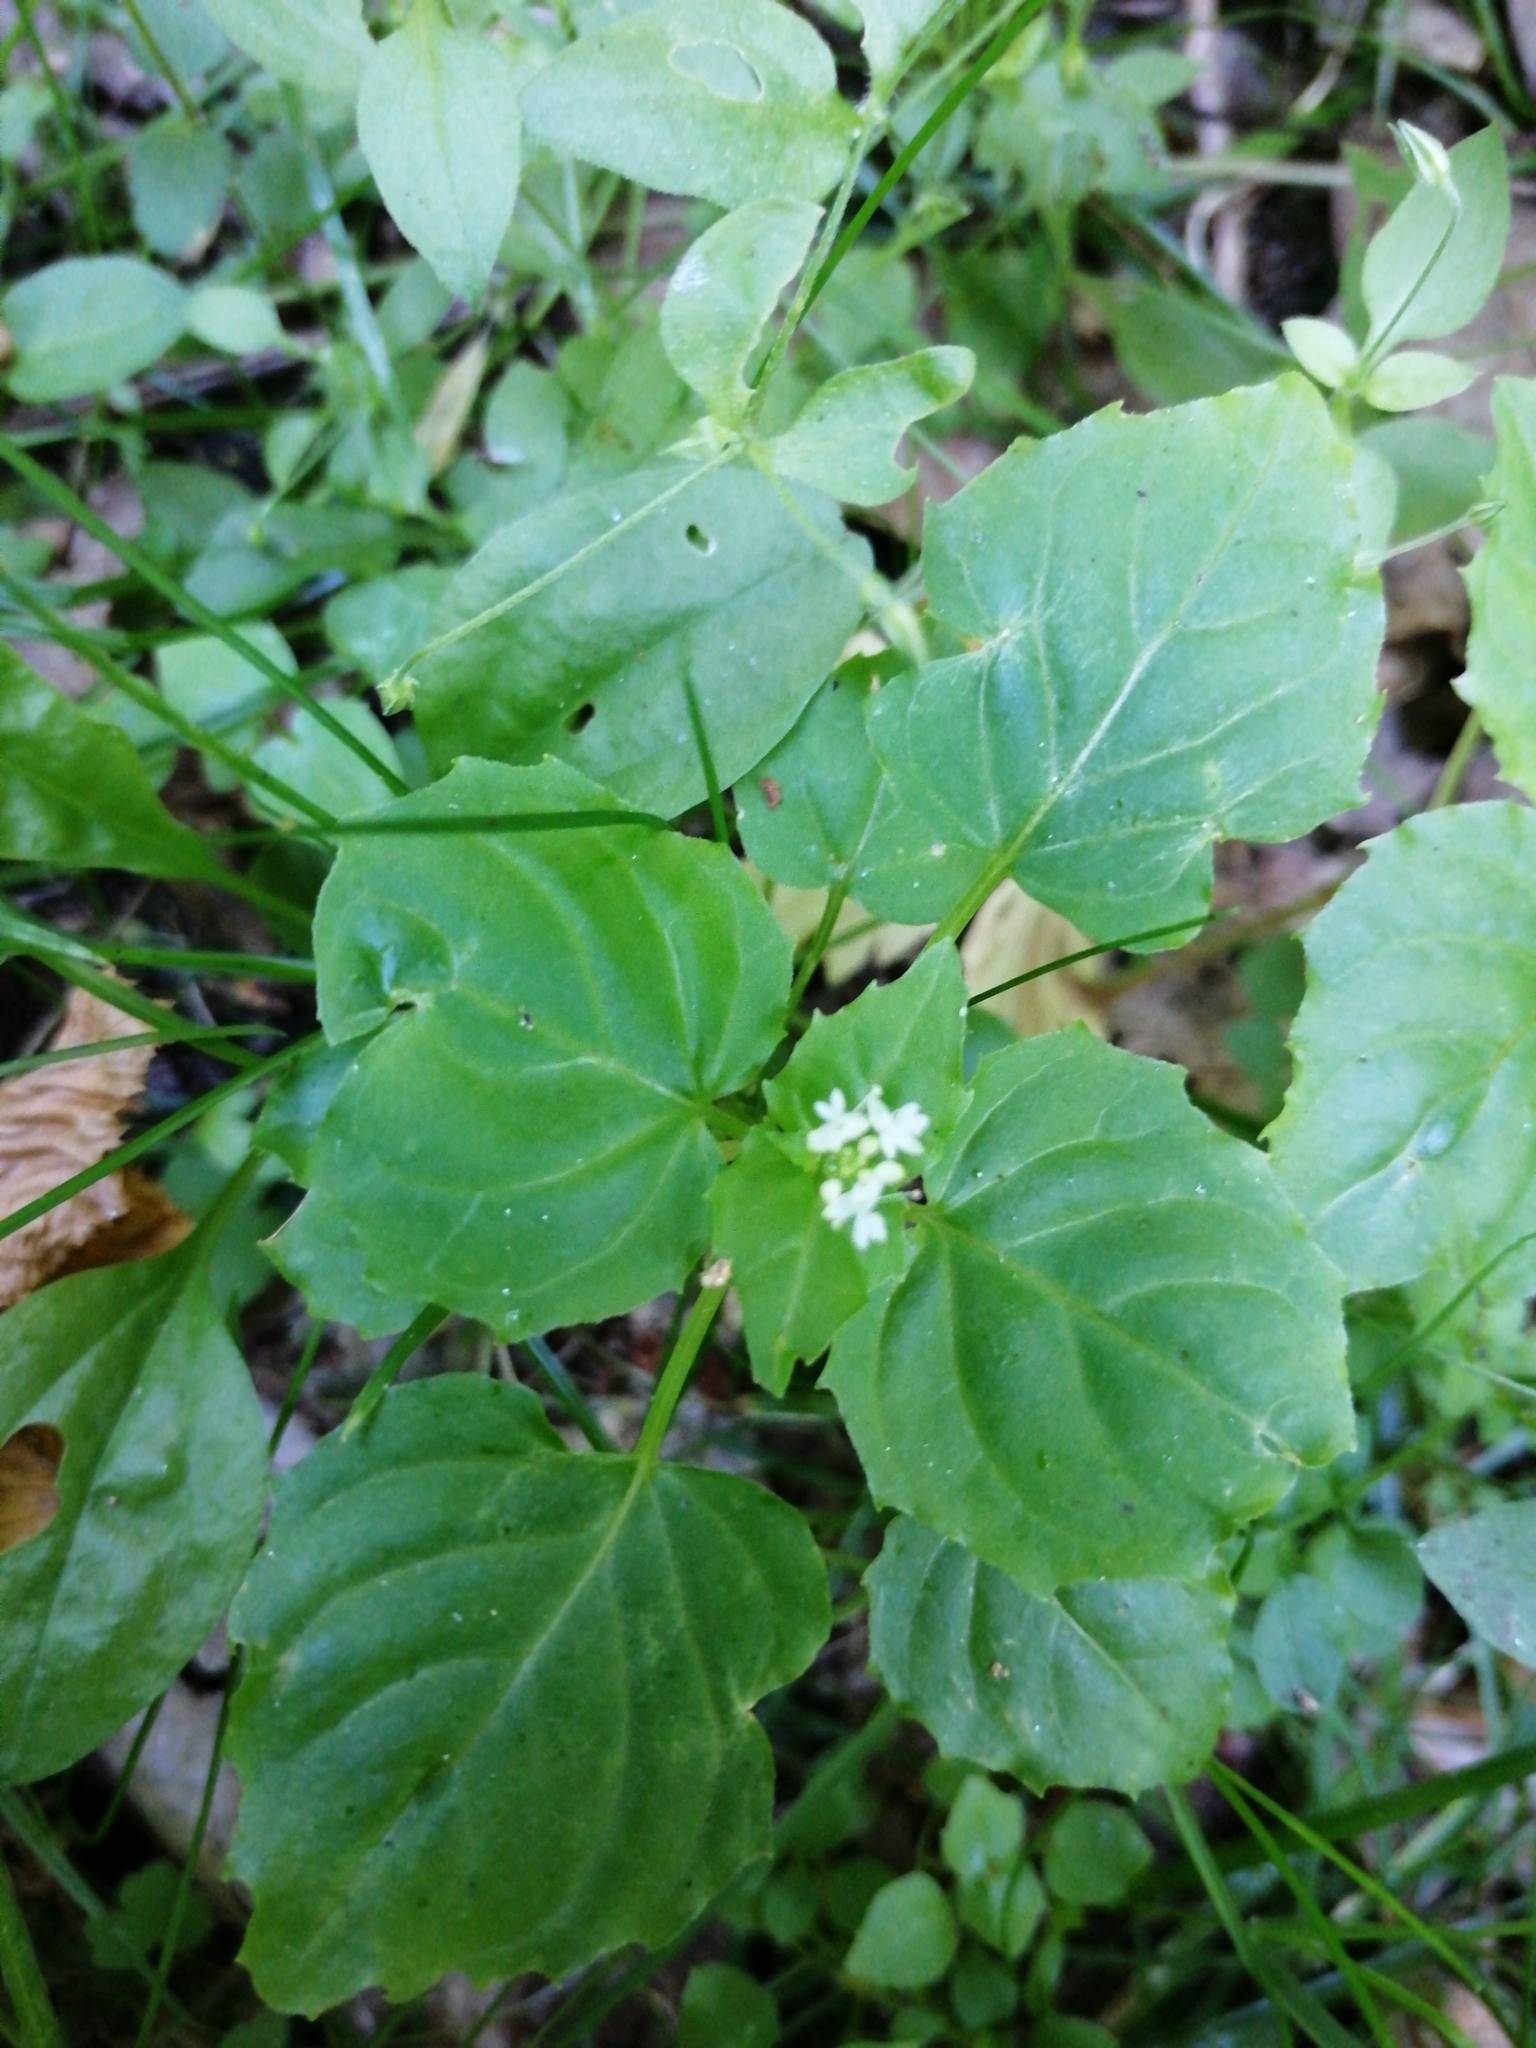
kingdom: Plantae
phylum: Tracheophyta
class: Magnoliopsida
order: Myrtales
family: Onagraceae
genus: Circaea
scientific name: Circaea alpina
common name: Alpine enchanter's-nightshade
